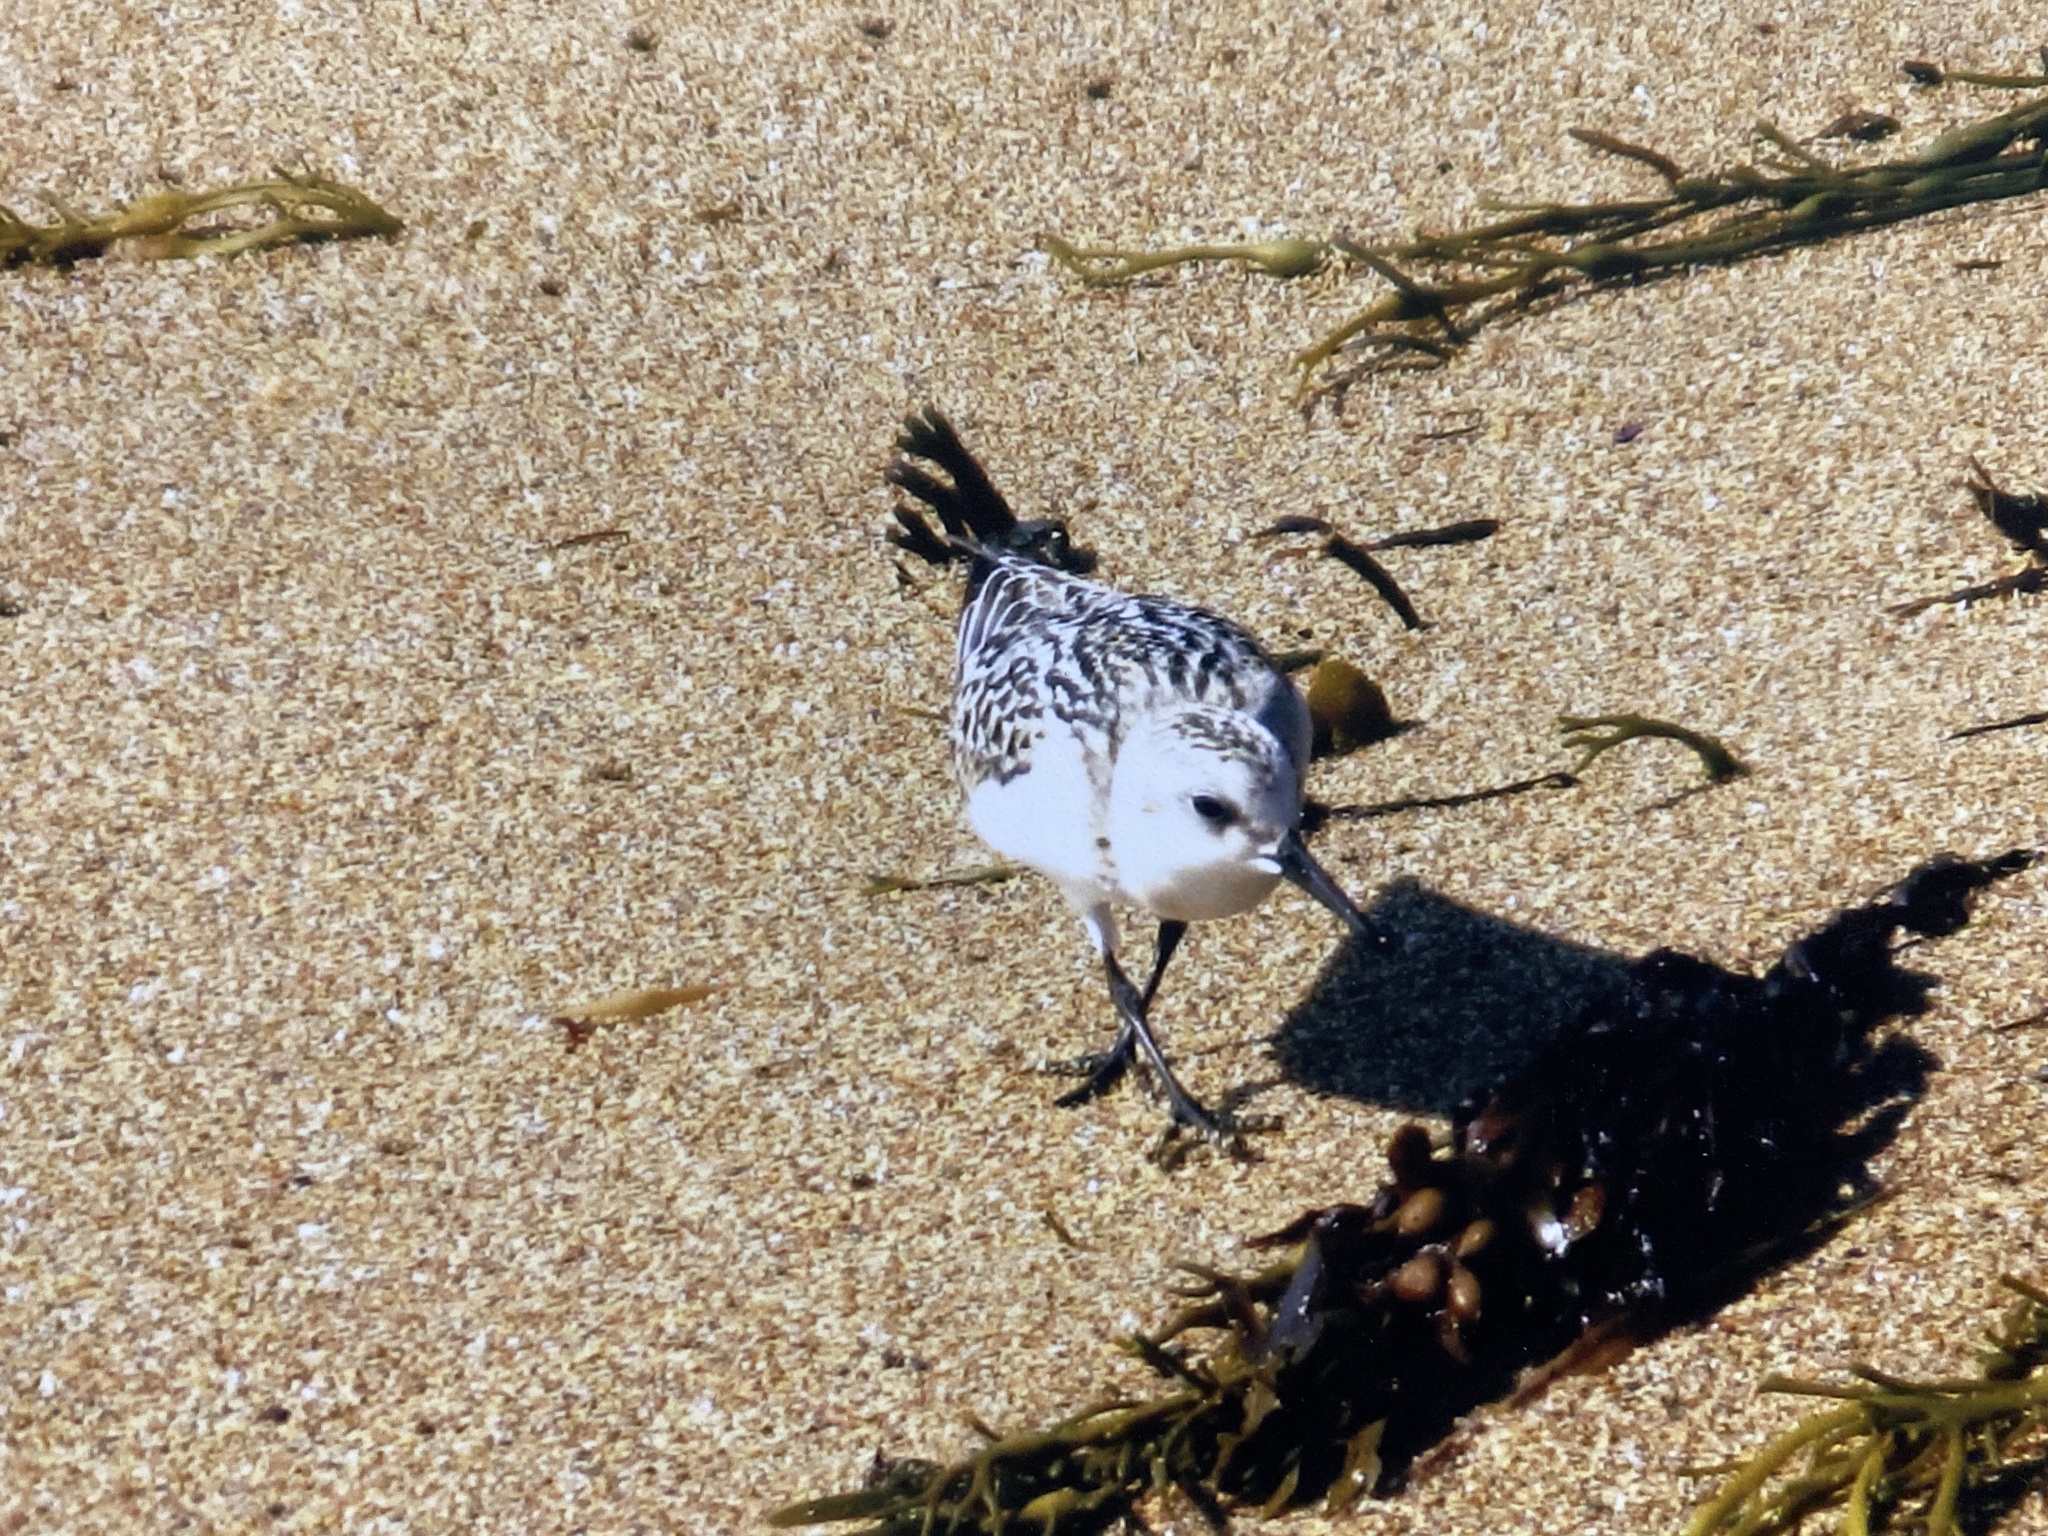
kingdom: Animalia
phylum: Chordata
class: Aves
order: Charadriiformes
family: Scolopacidae
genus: Calidris
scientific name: Calidris alba
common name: Sanderling
